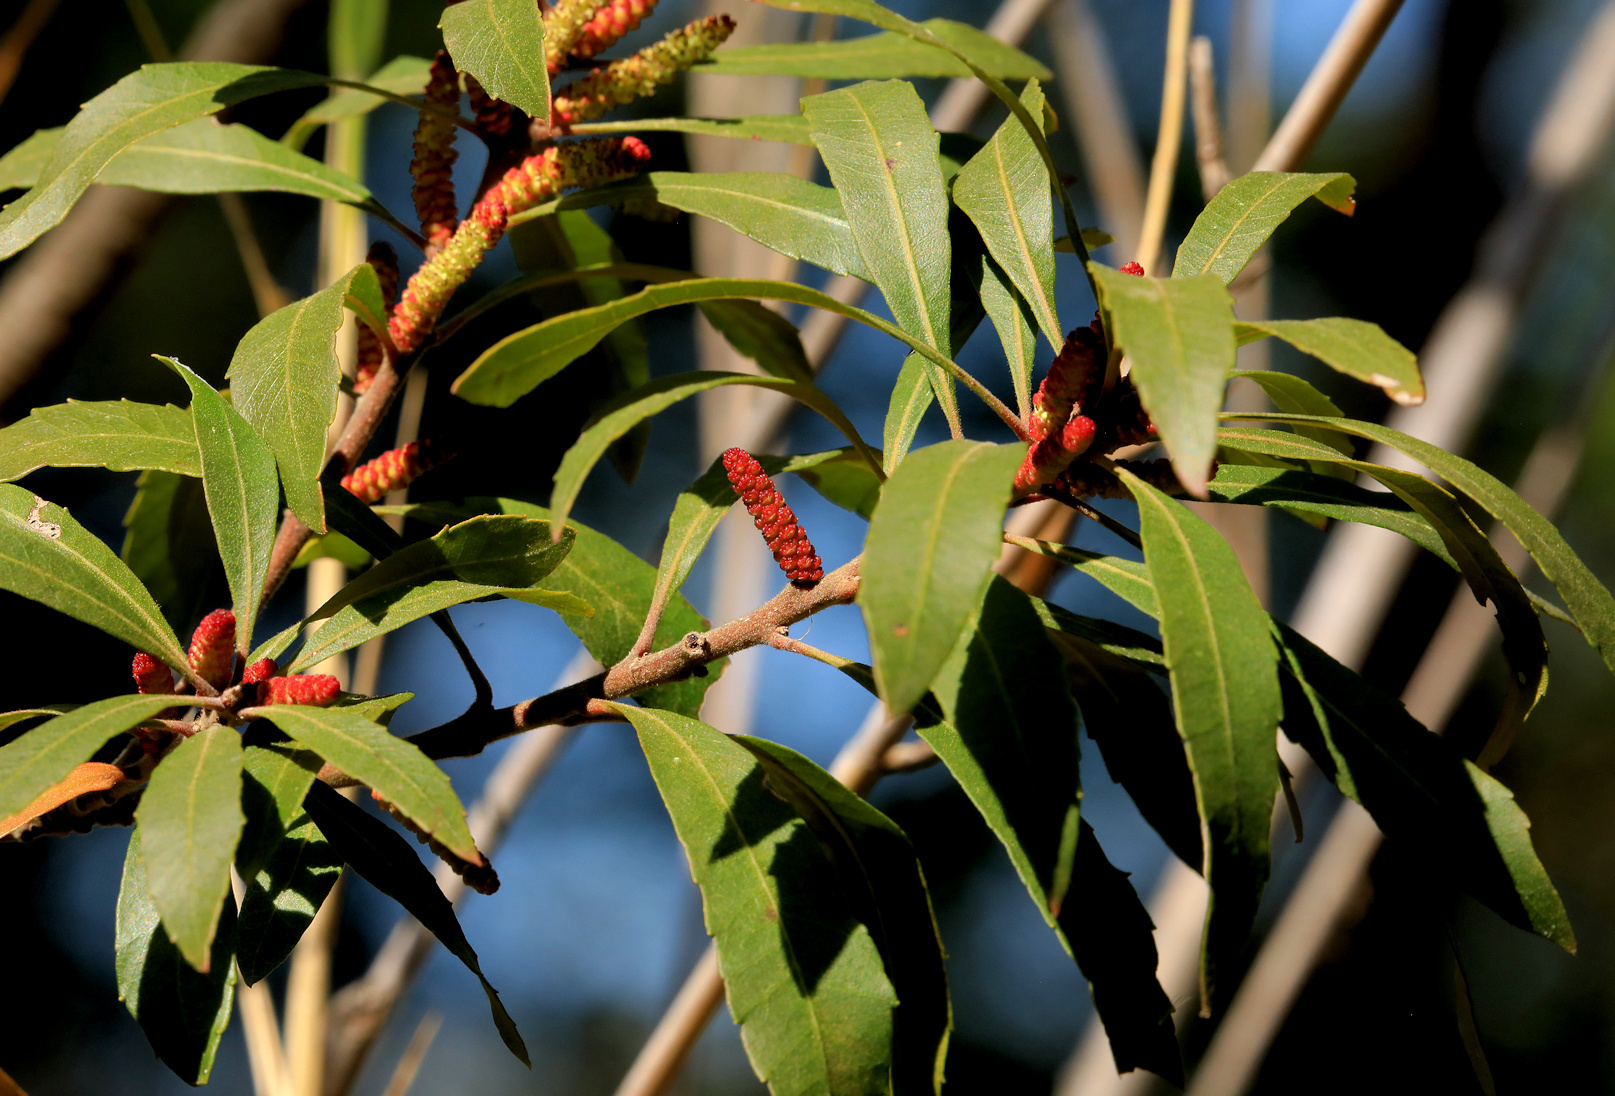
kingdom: Plantae
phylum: Tracheophyta
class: Magnoliopsida
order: Fagales
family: Myricaceae
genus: Morella
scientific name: Morella serrata
